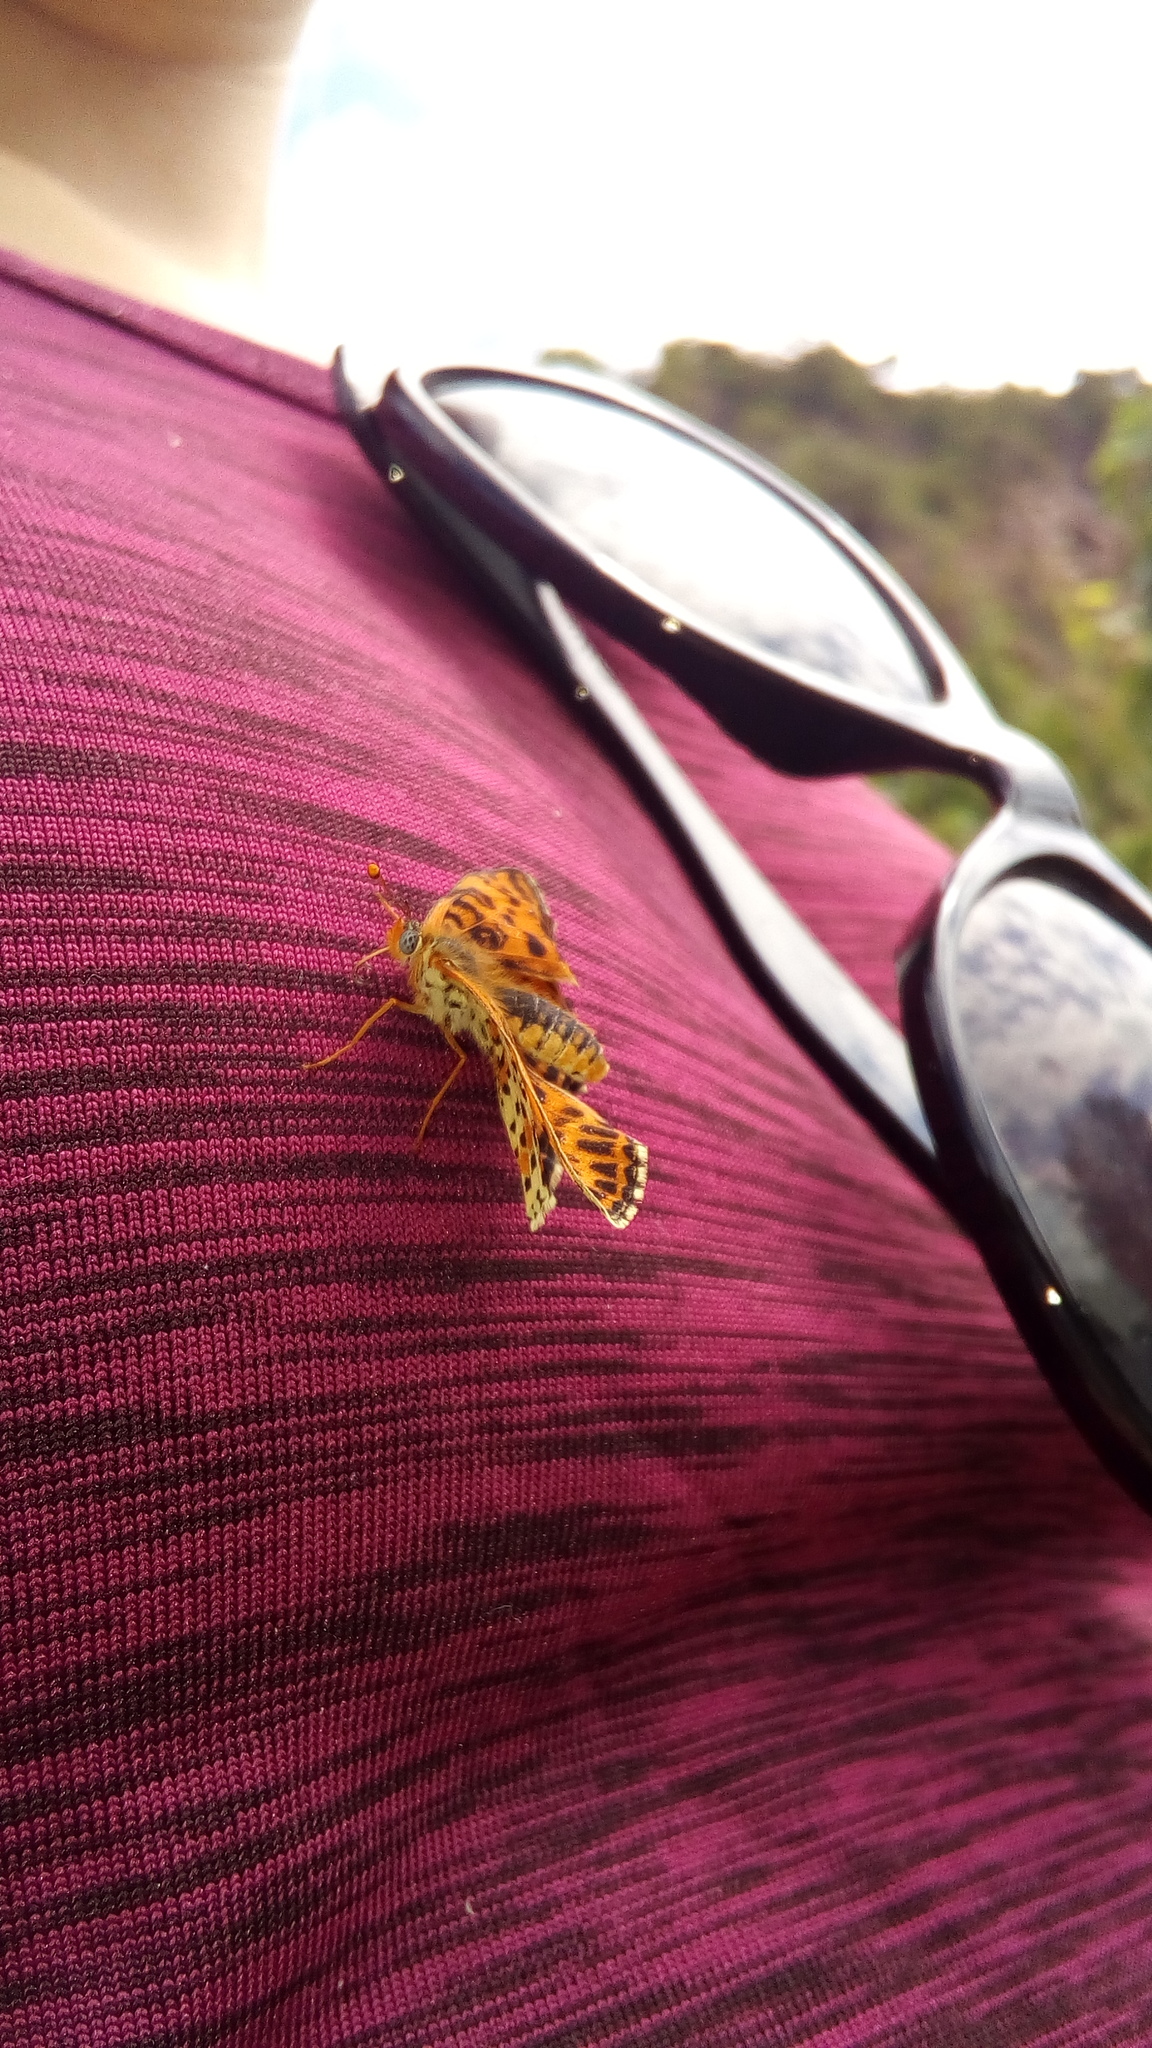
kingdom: Animalia
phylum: Arthropoda
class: Insecta
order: Lepidoptera
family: Nymphalidae
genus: Melitaea
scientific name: Melitaea didyma
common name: Spotted fritillary
